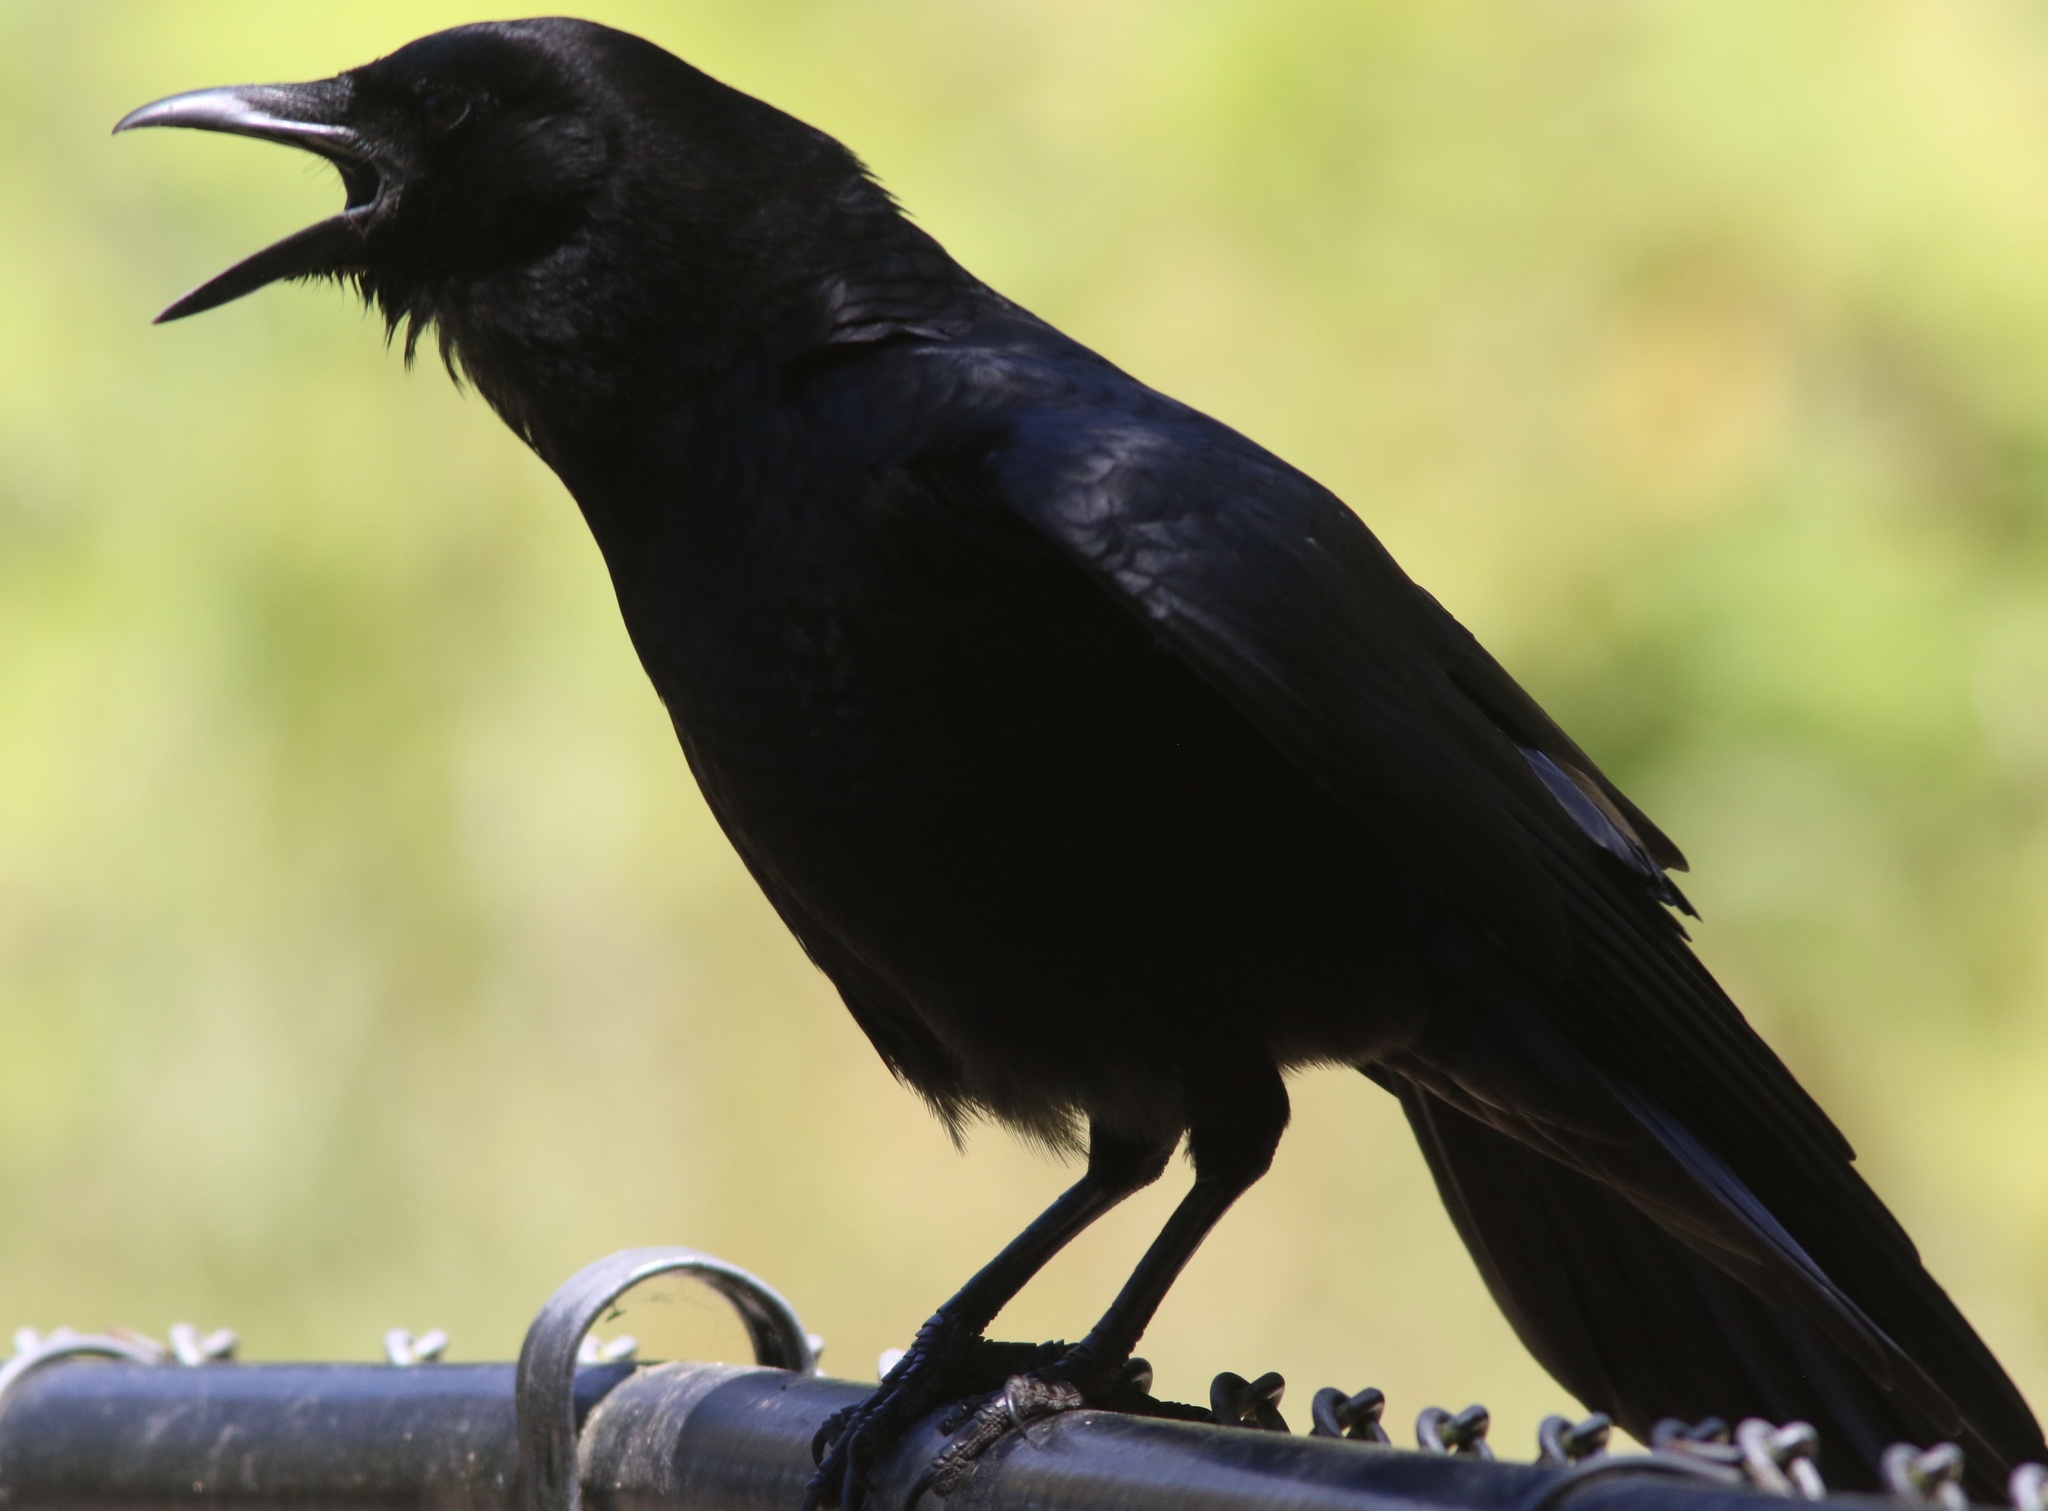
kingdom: Animalia
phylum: Chordata
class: Aves
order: Passeriformes
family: Corvidae
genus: Corvus
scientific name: Corvus brachyrhynchos
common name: American crow
